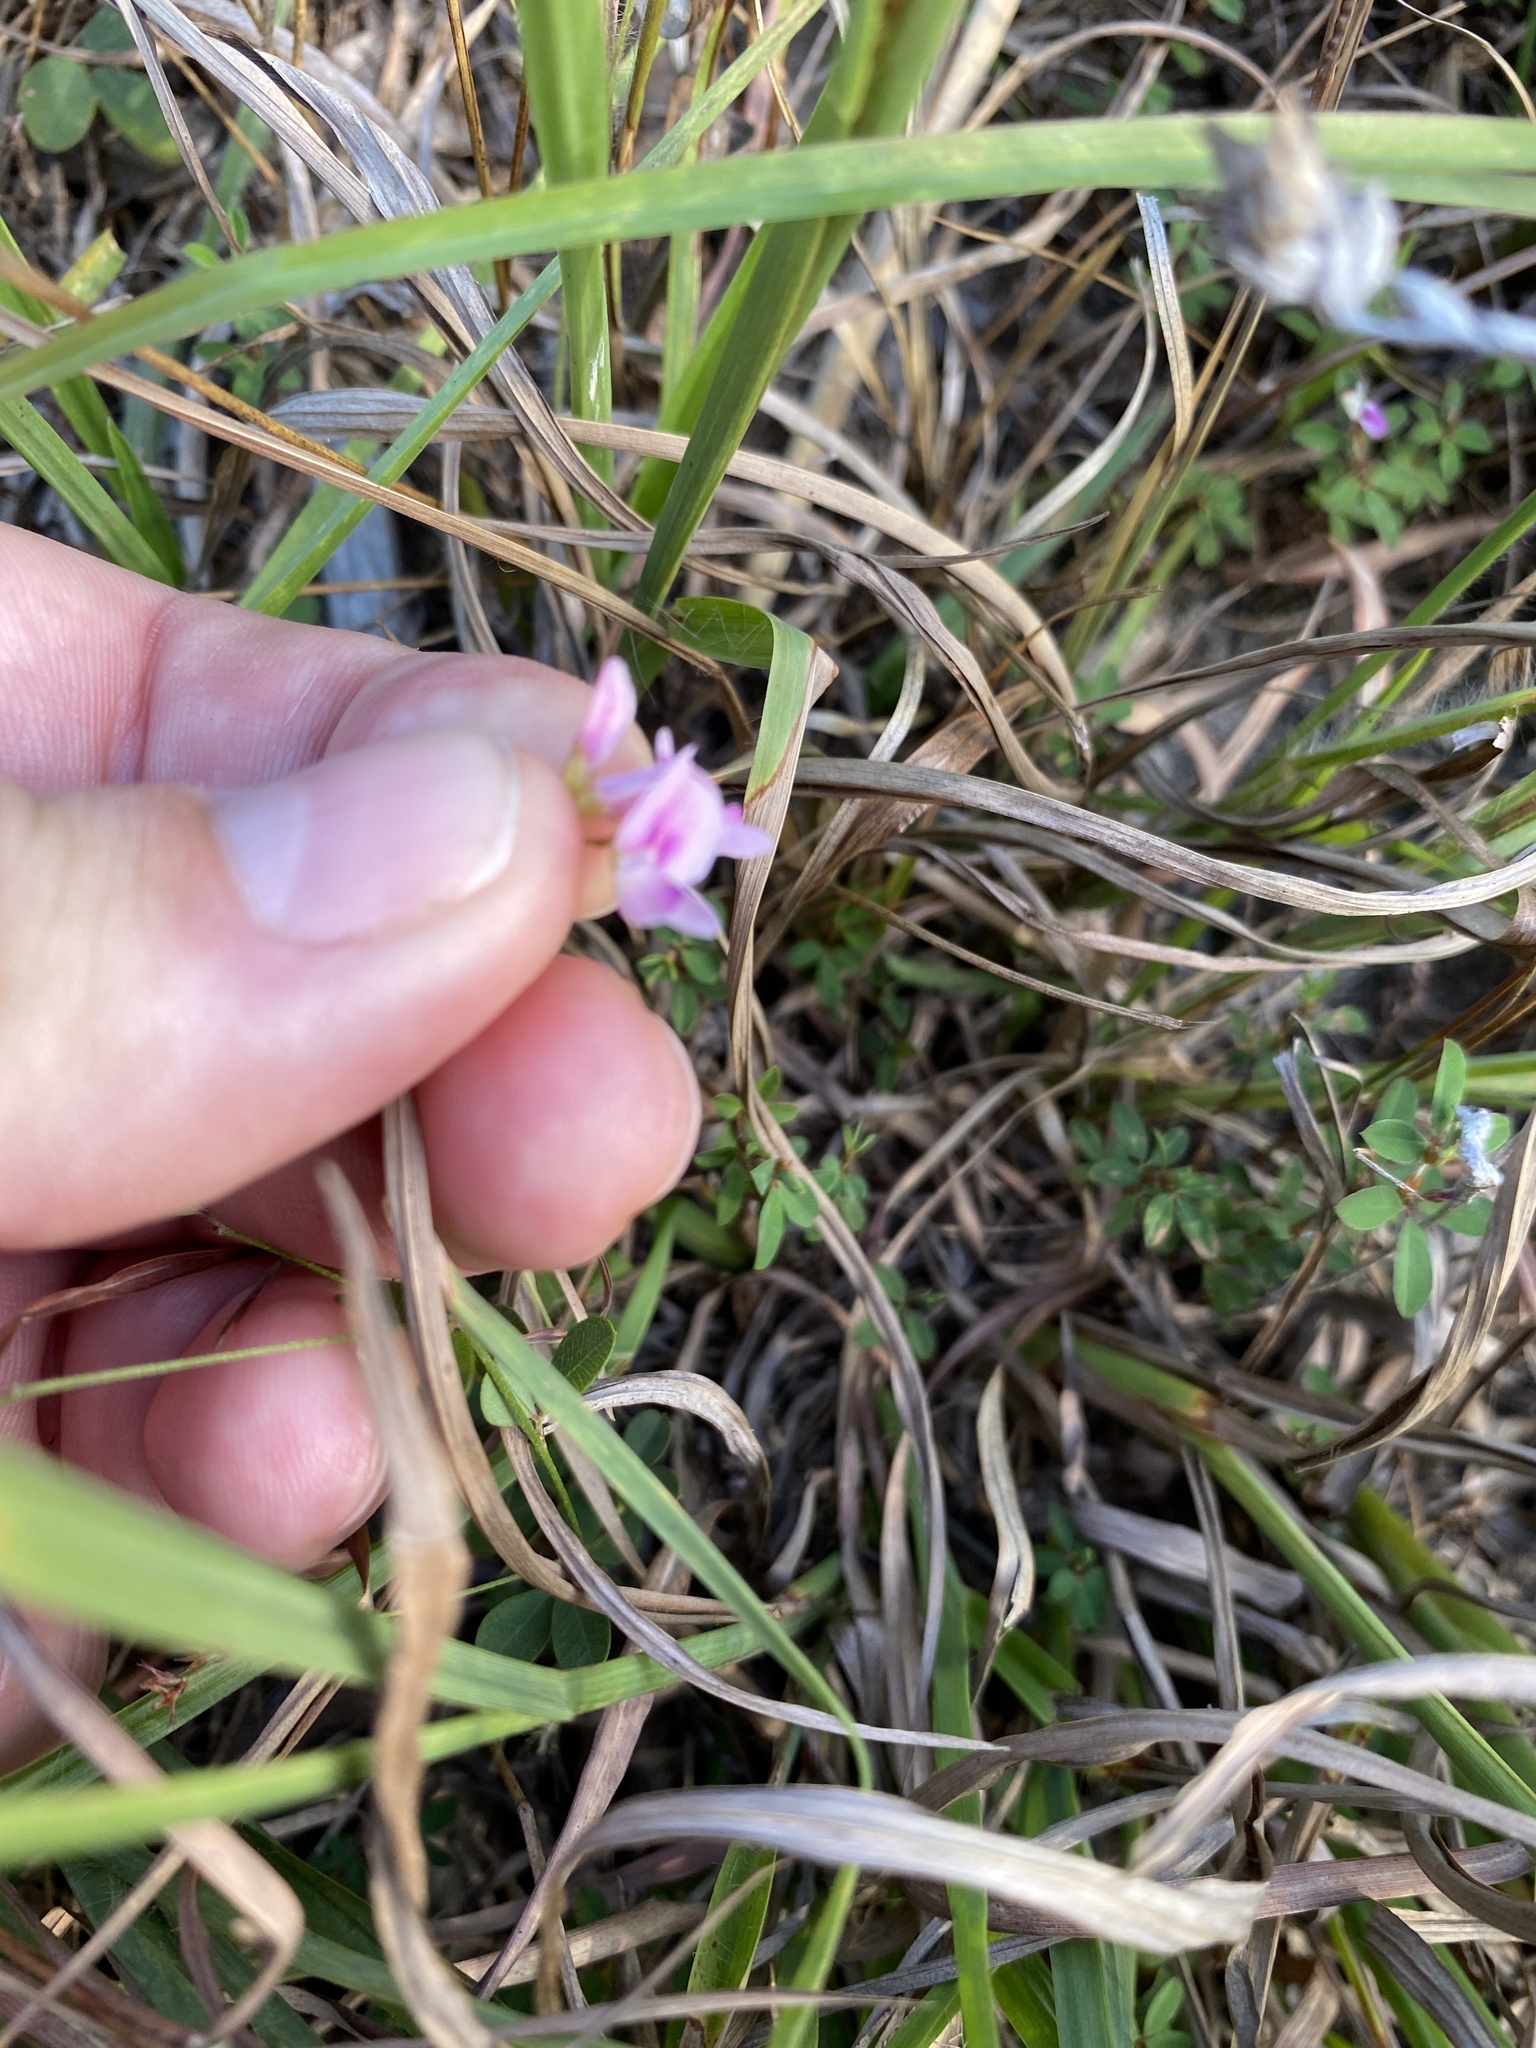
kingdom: Plantae
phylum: Tracheophyta
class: Magnoliopsida
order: Fabales
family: Fabaceae
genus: Lespedeza
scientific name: Lespedeza repens
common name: Creeping bush-clover
